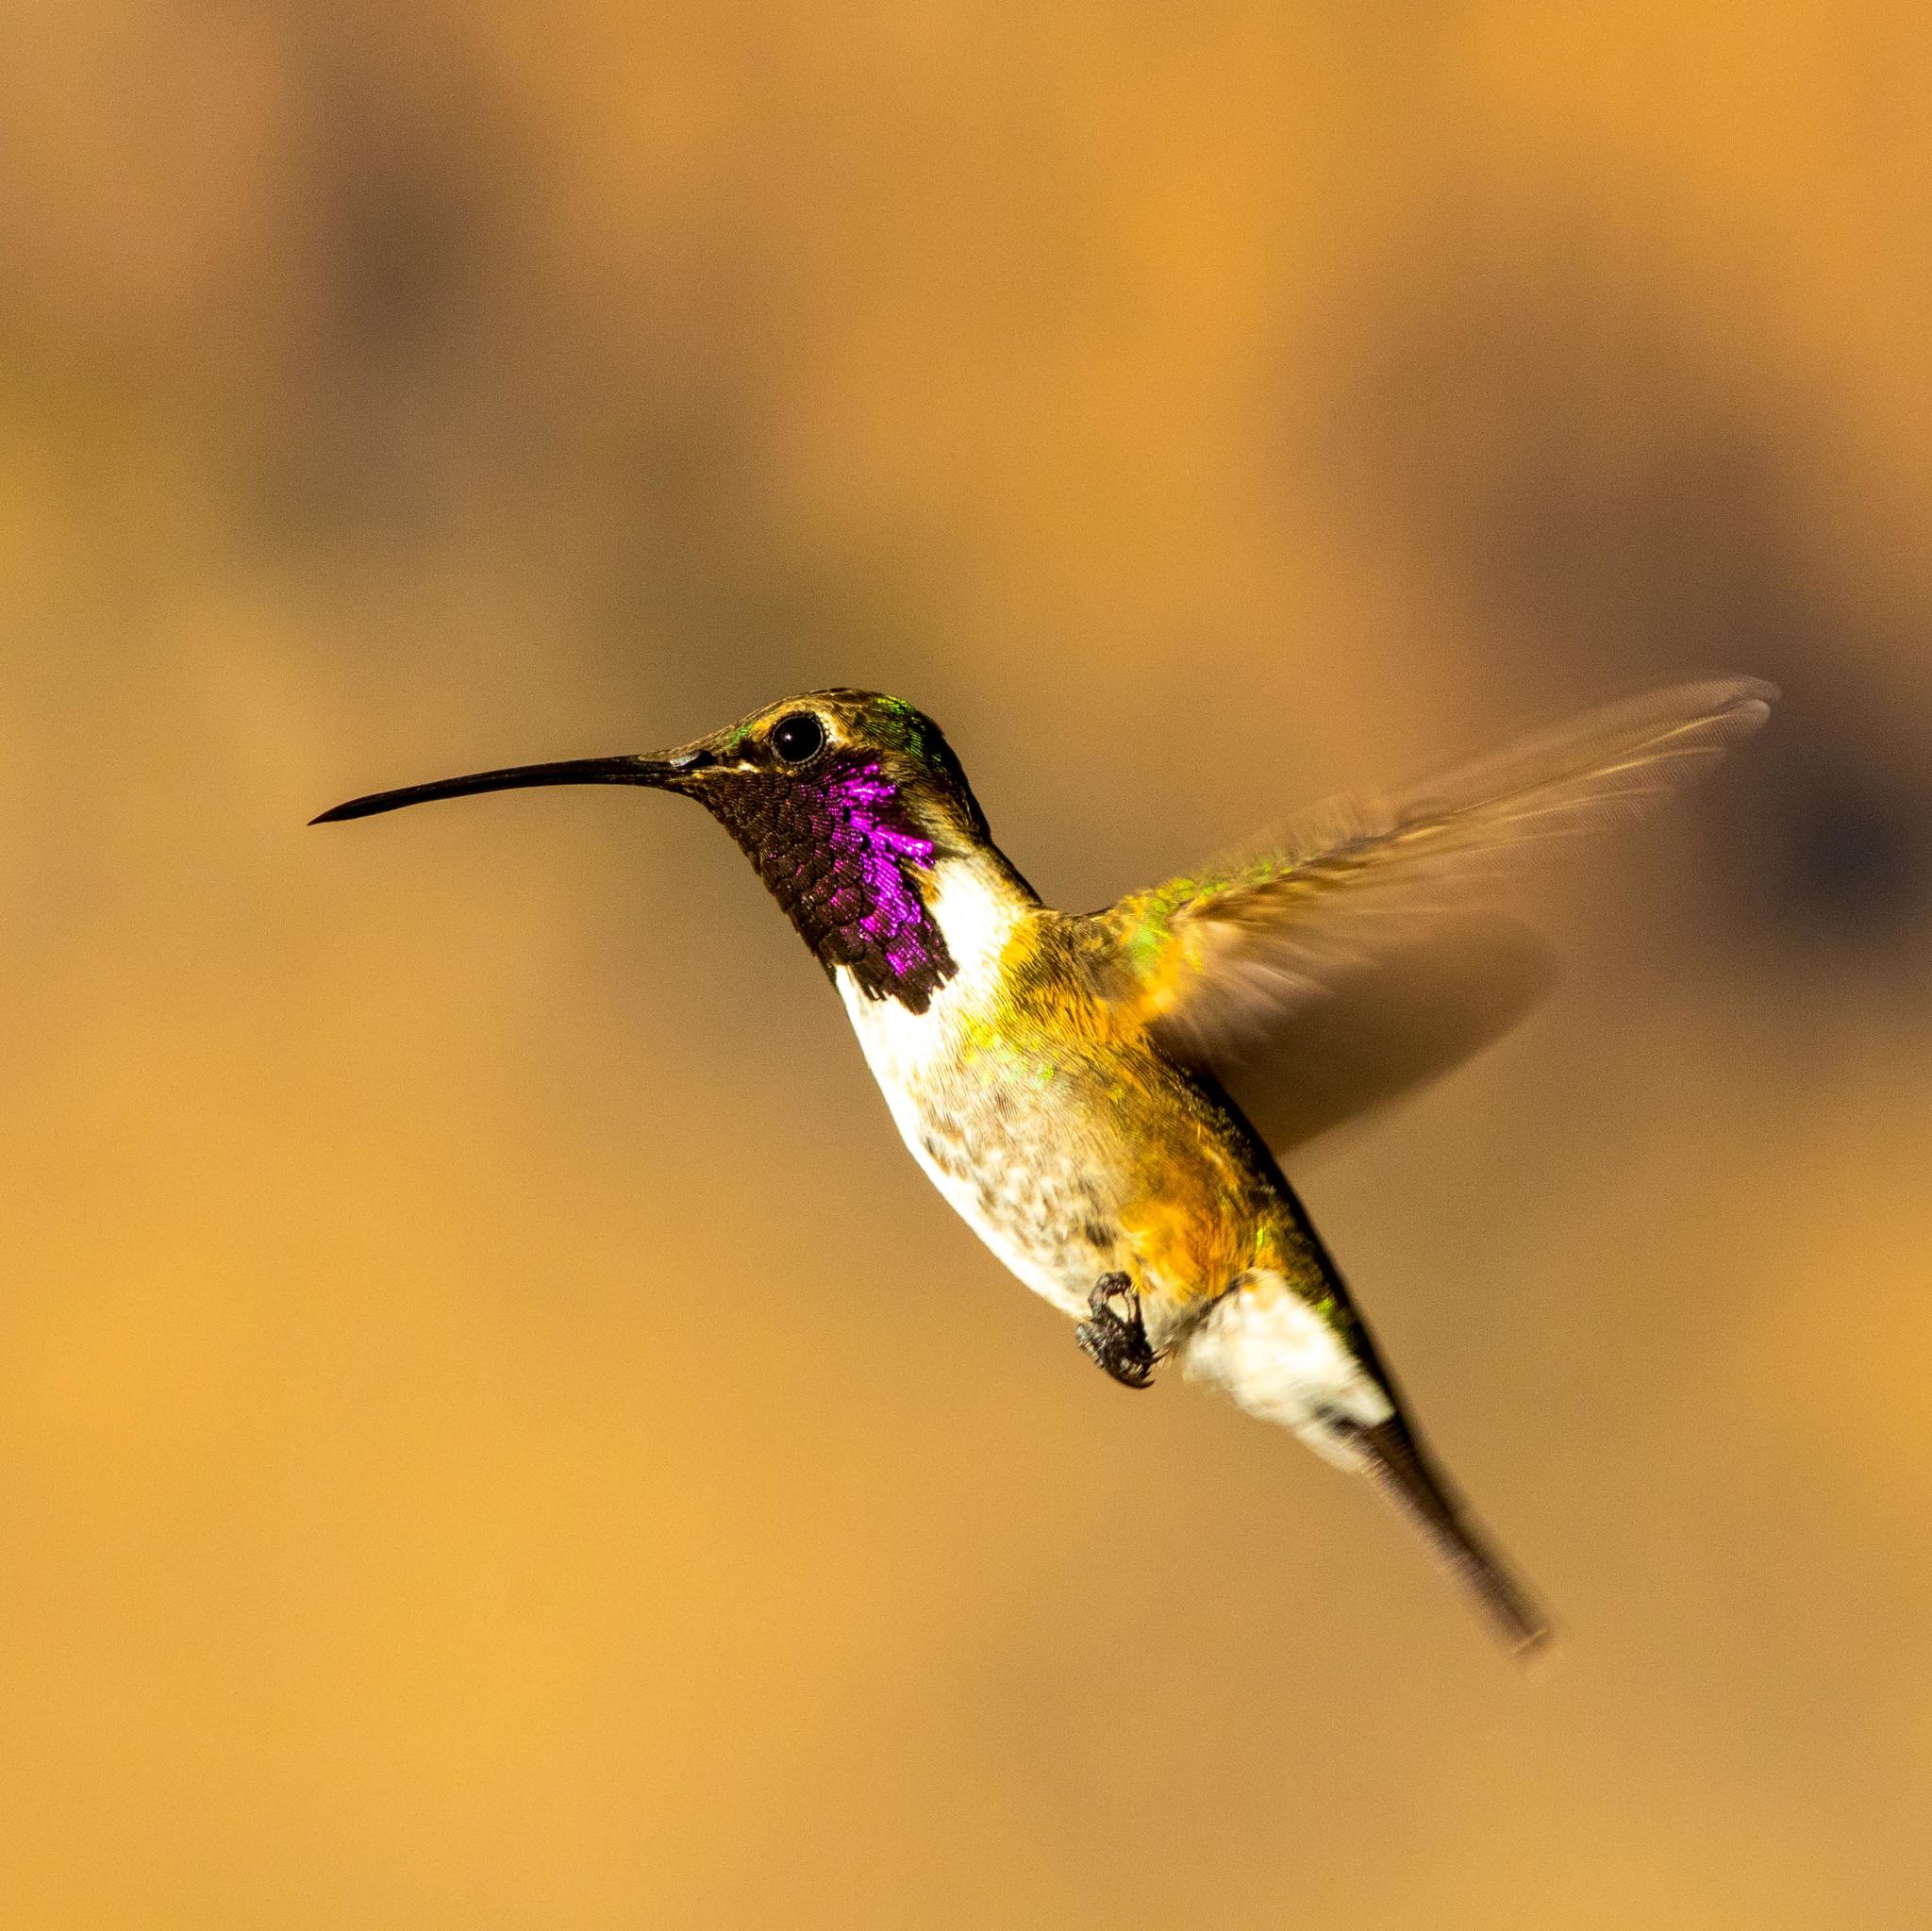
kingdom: Animalia
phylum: Chordata
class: Aves
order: Apodiformes
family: Trochilidae
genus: Calothorax
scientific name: Calothorax lucifer
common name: Lucifer sheartail
